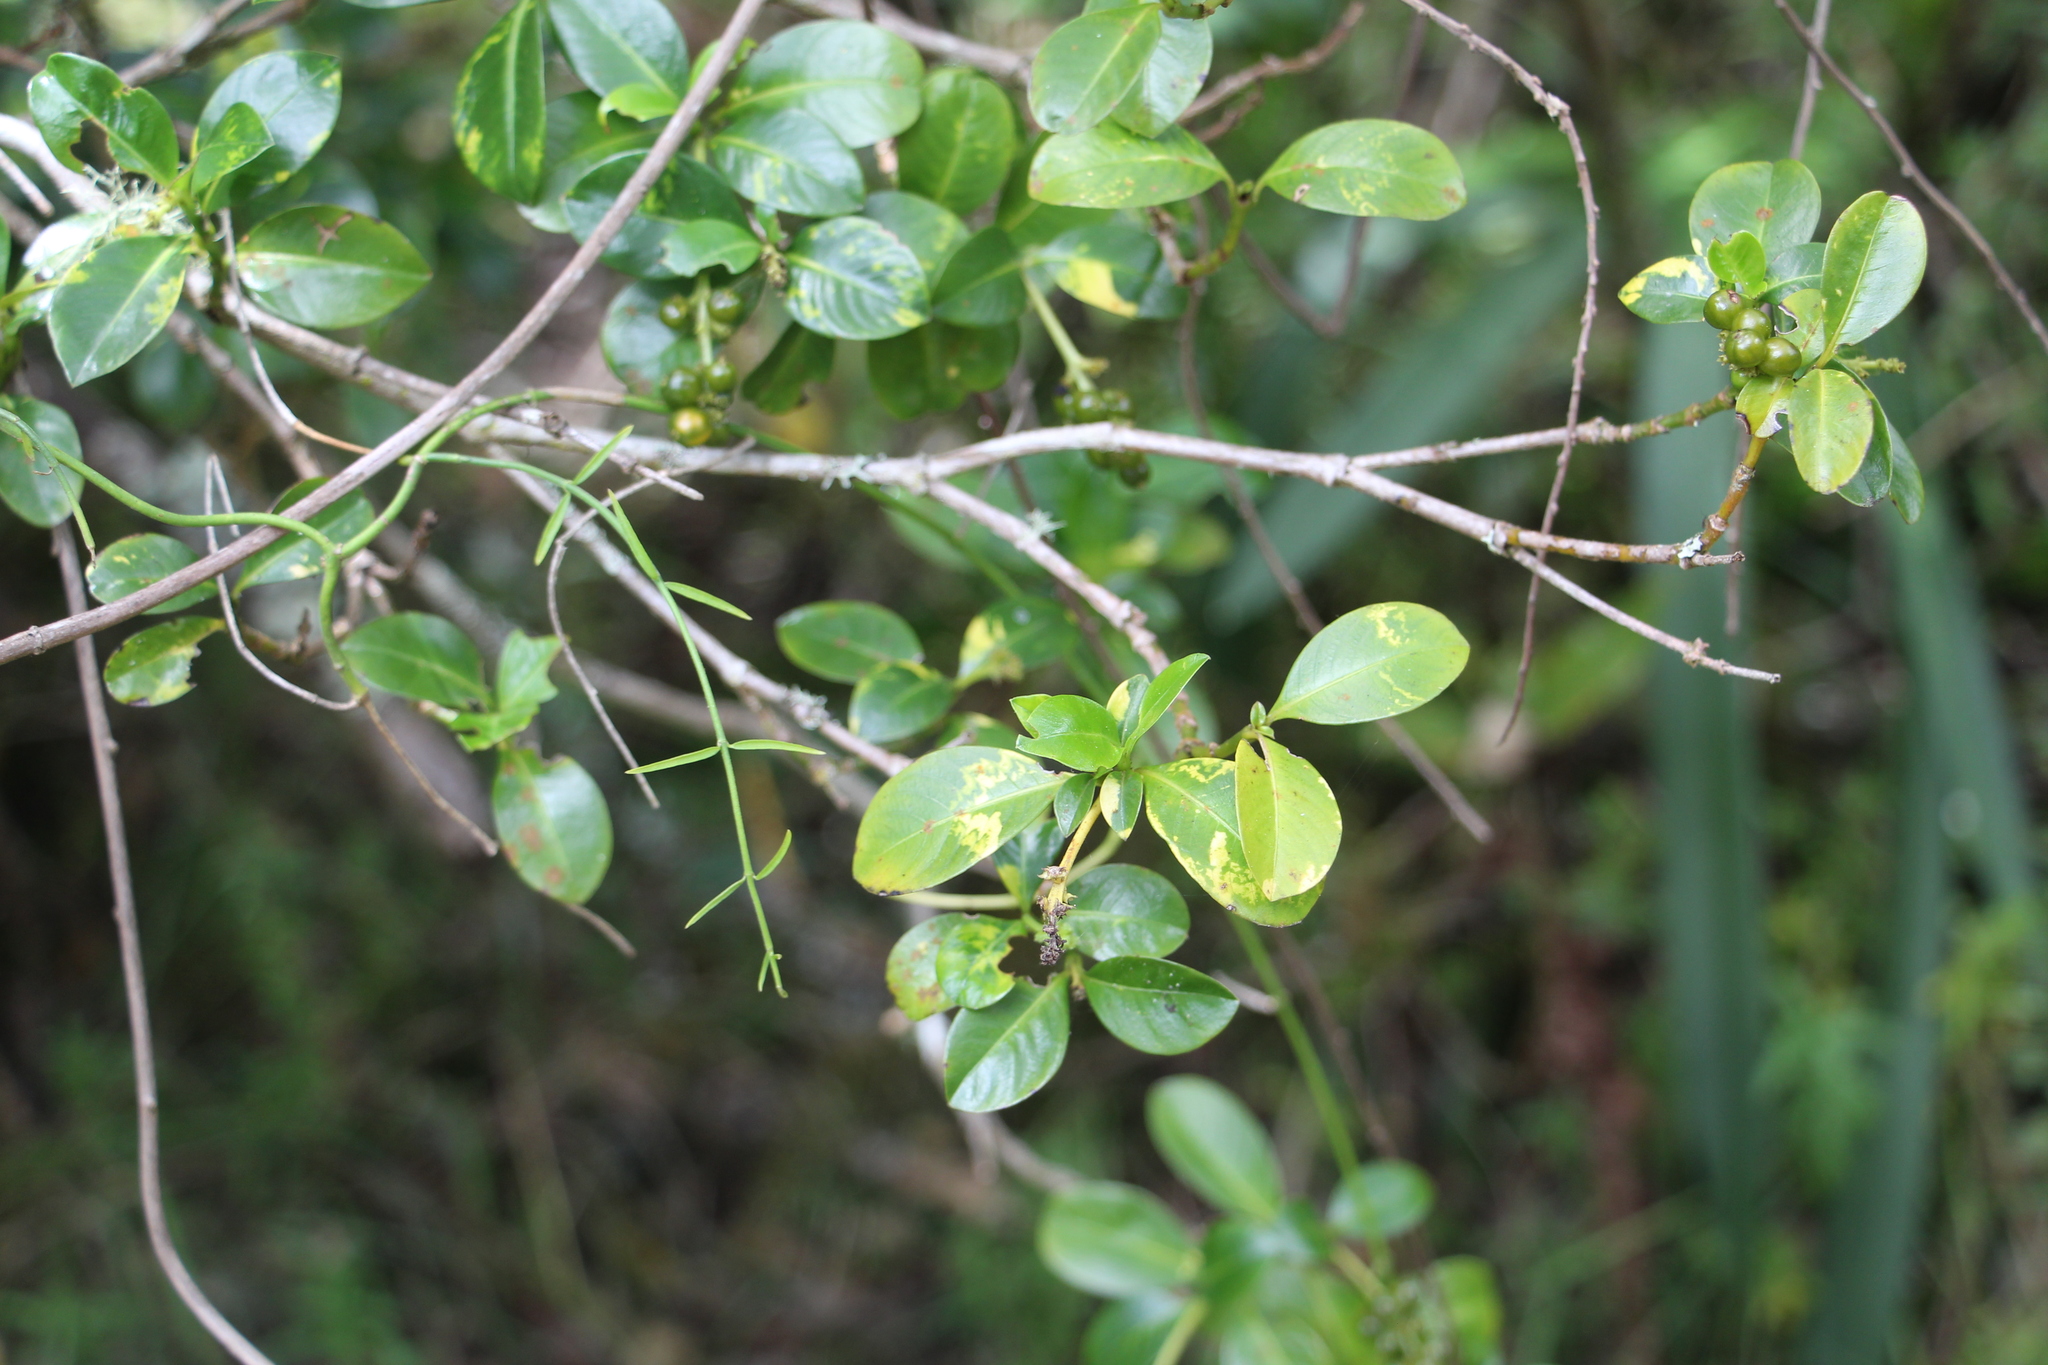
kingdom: Plantae
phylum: Tracheophyta
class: Magnoliopsida
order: Gentianales
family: Rubiaceae
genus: Palicourea
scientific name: Palicourea boqueronensis
